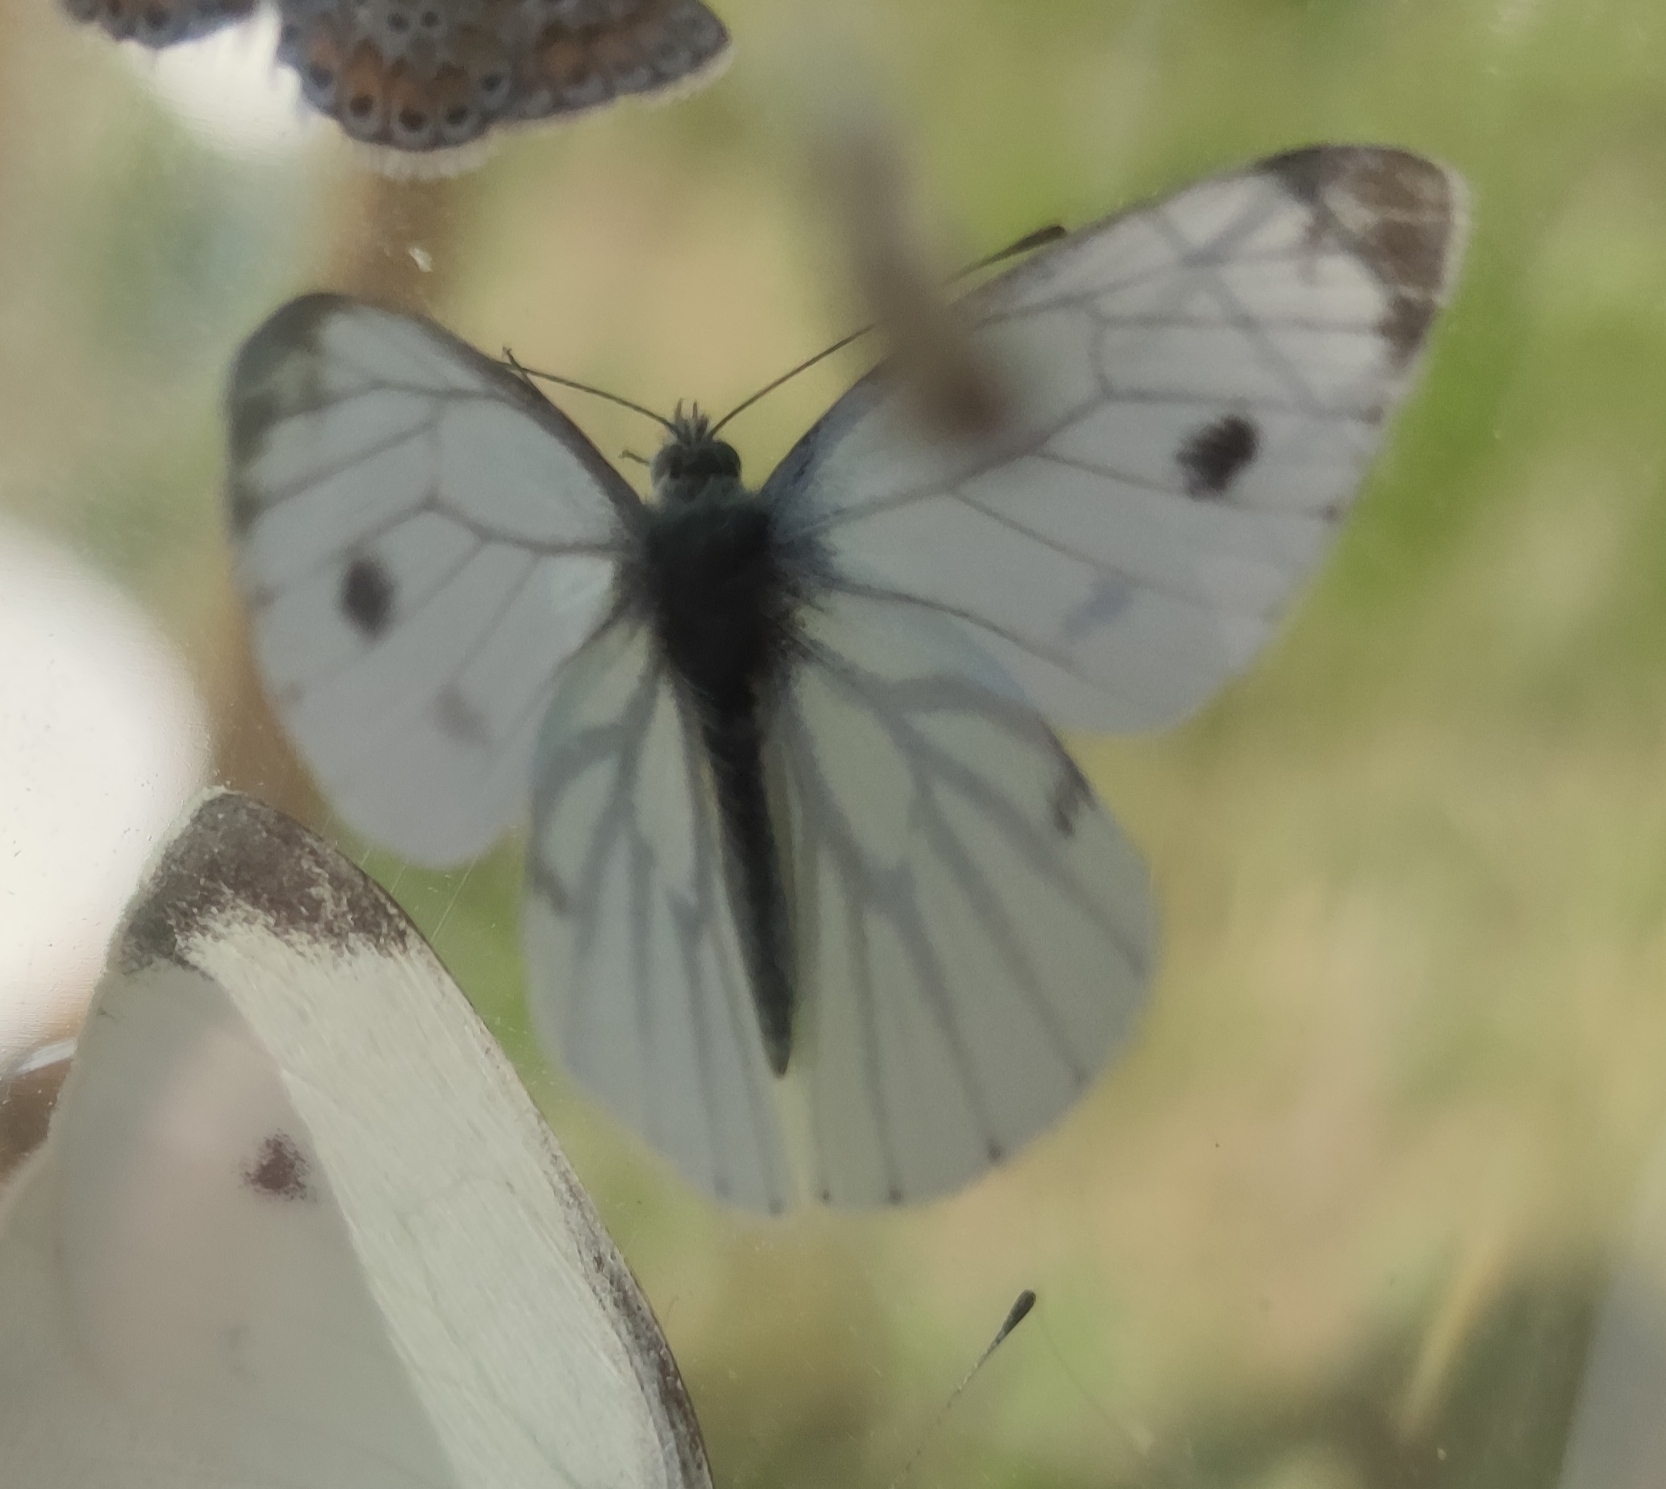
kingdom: Animalia
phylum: Arthropoda
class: Insecta
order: Lepidoptera
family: Pieridae
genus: Pieris
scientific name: Pieris napi
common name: Green-veined white
